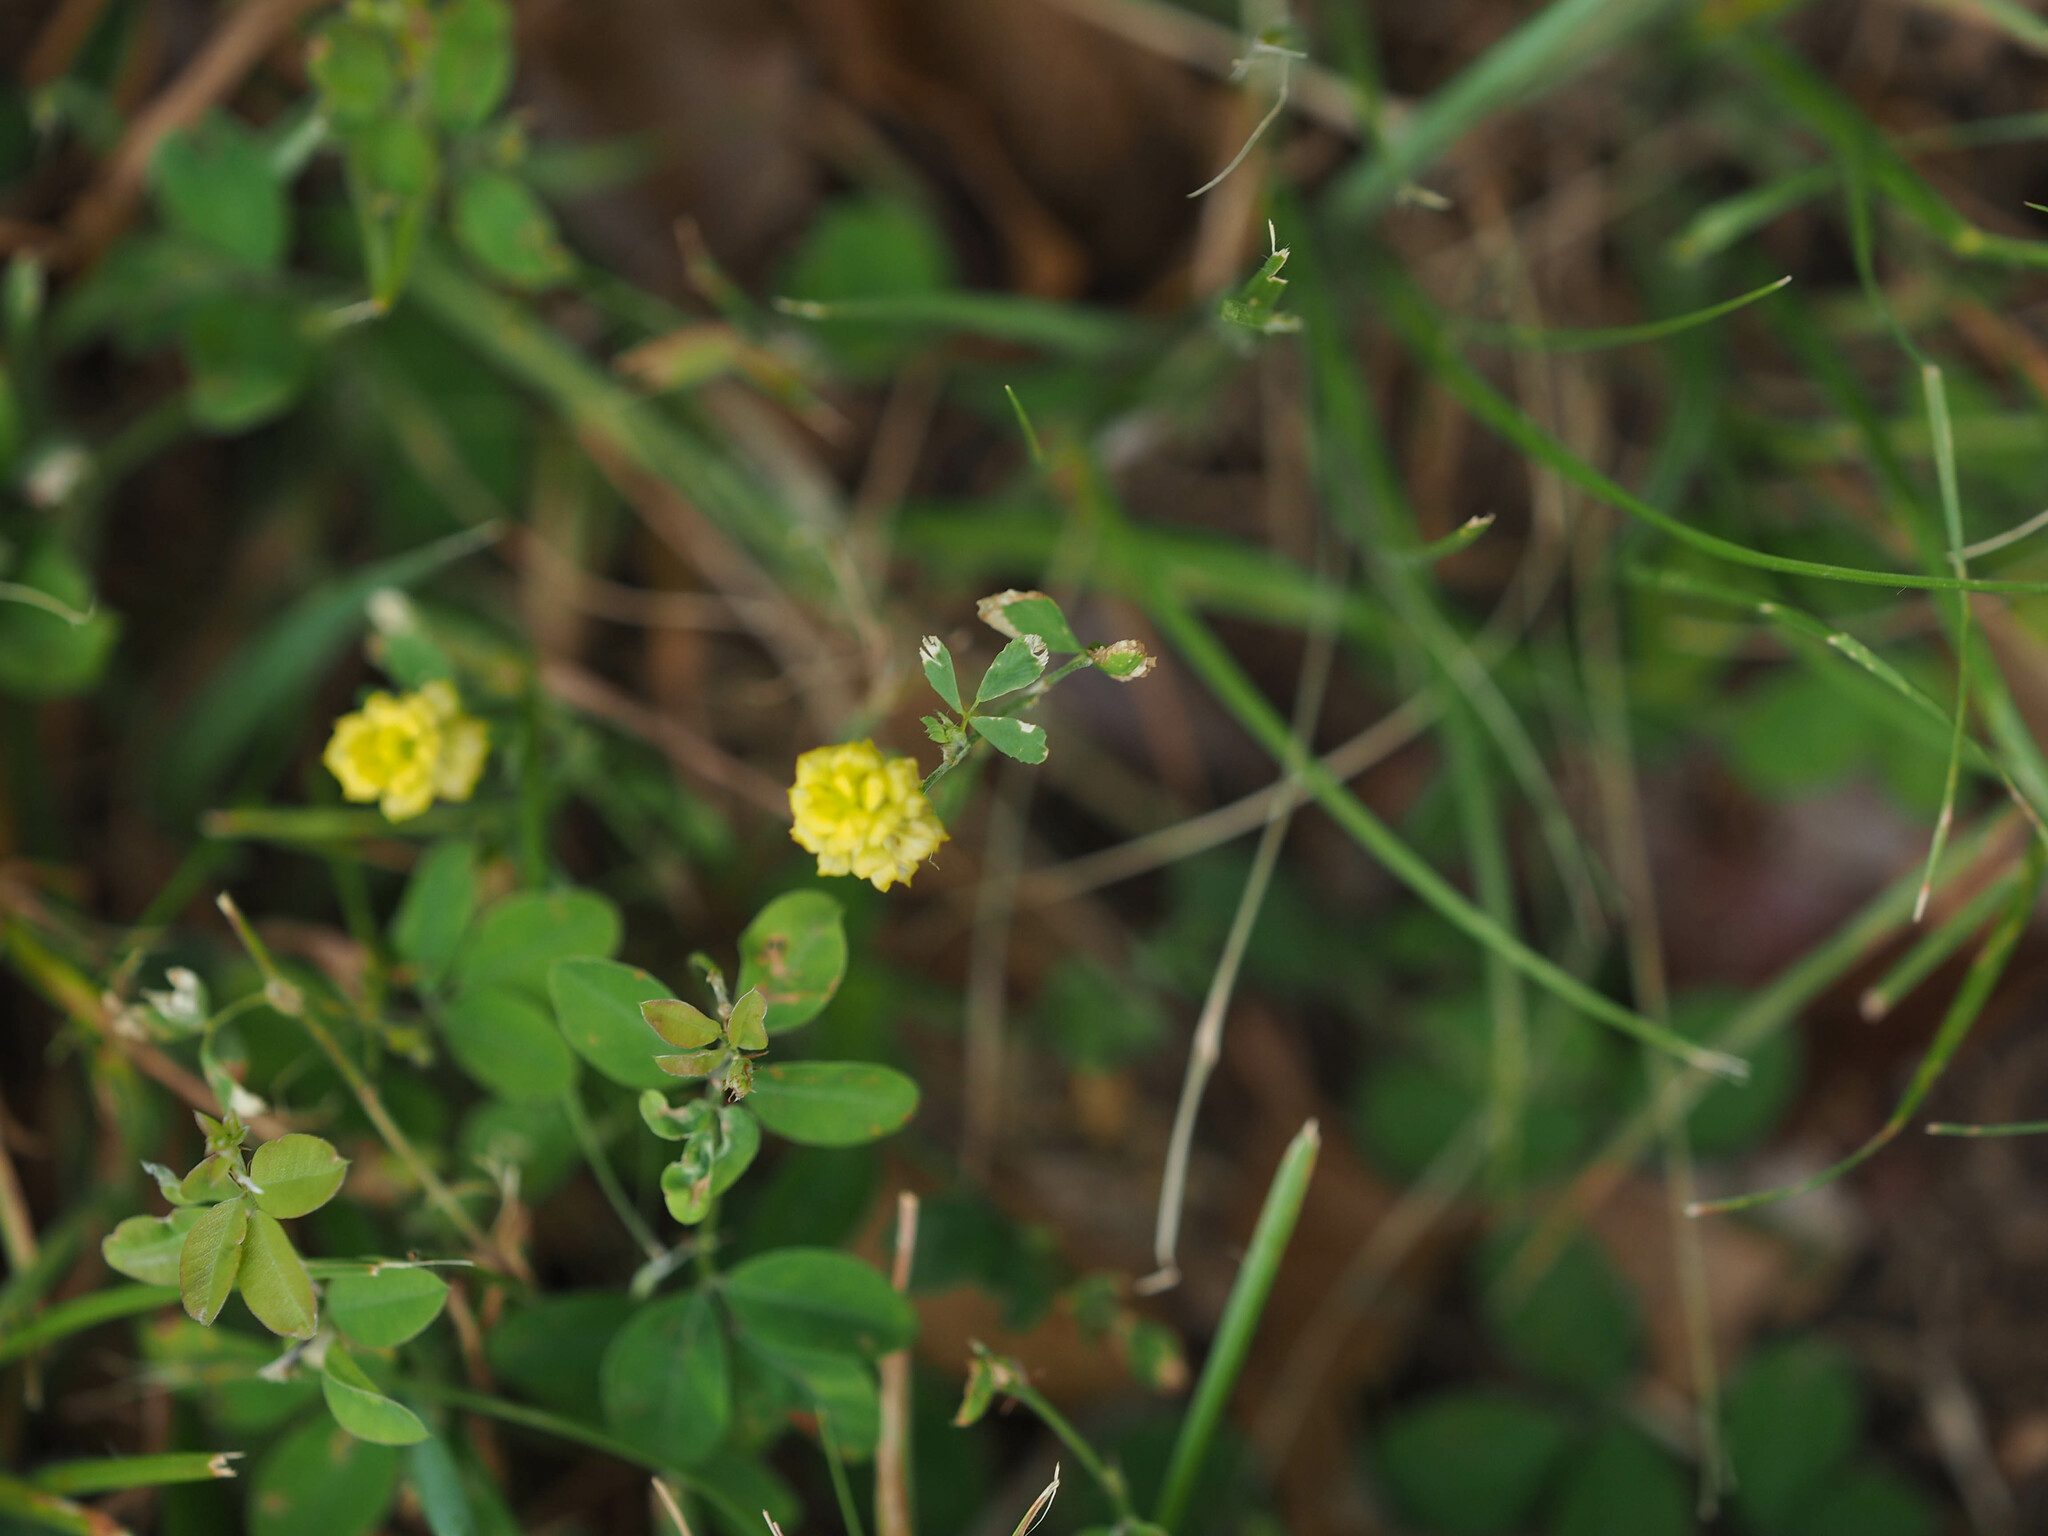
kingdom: Plantae
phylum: Tracheophyta
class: Magnoliopsida
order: Fabales
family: Fabaceae
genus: Trifolium
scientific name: Trifolium campestre
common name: Field clover
